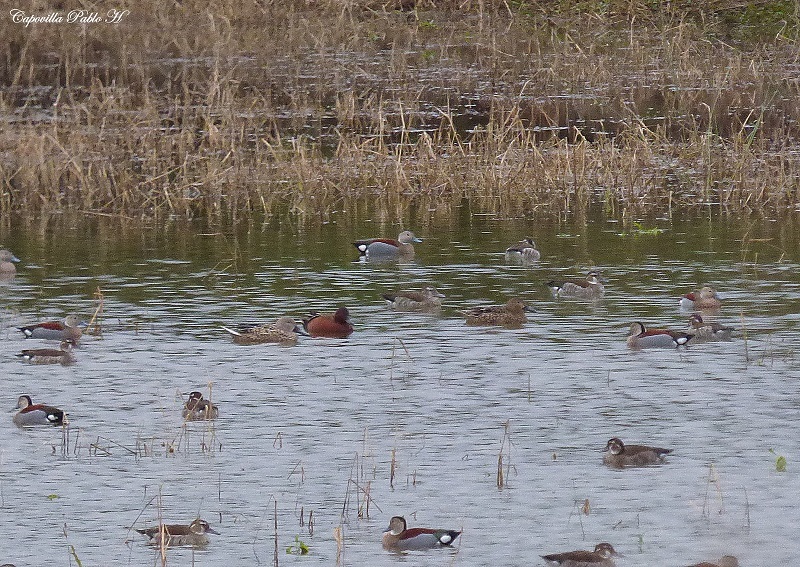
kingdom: Animalia
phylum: Chordata
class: Aves
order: Anseriformes
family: Anatidae
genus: Spatula
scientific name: Spatula cyanoptera
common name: Cinnamon teal
